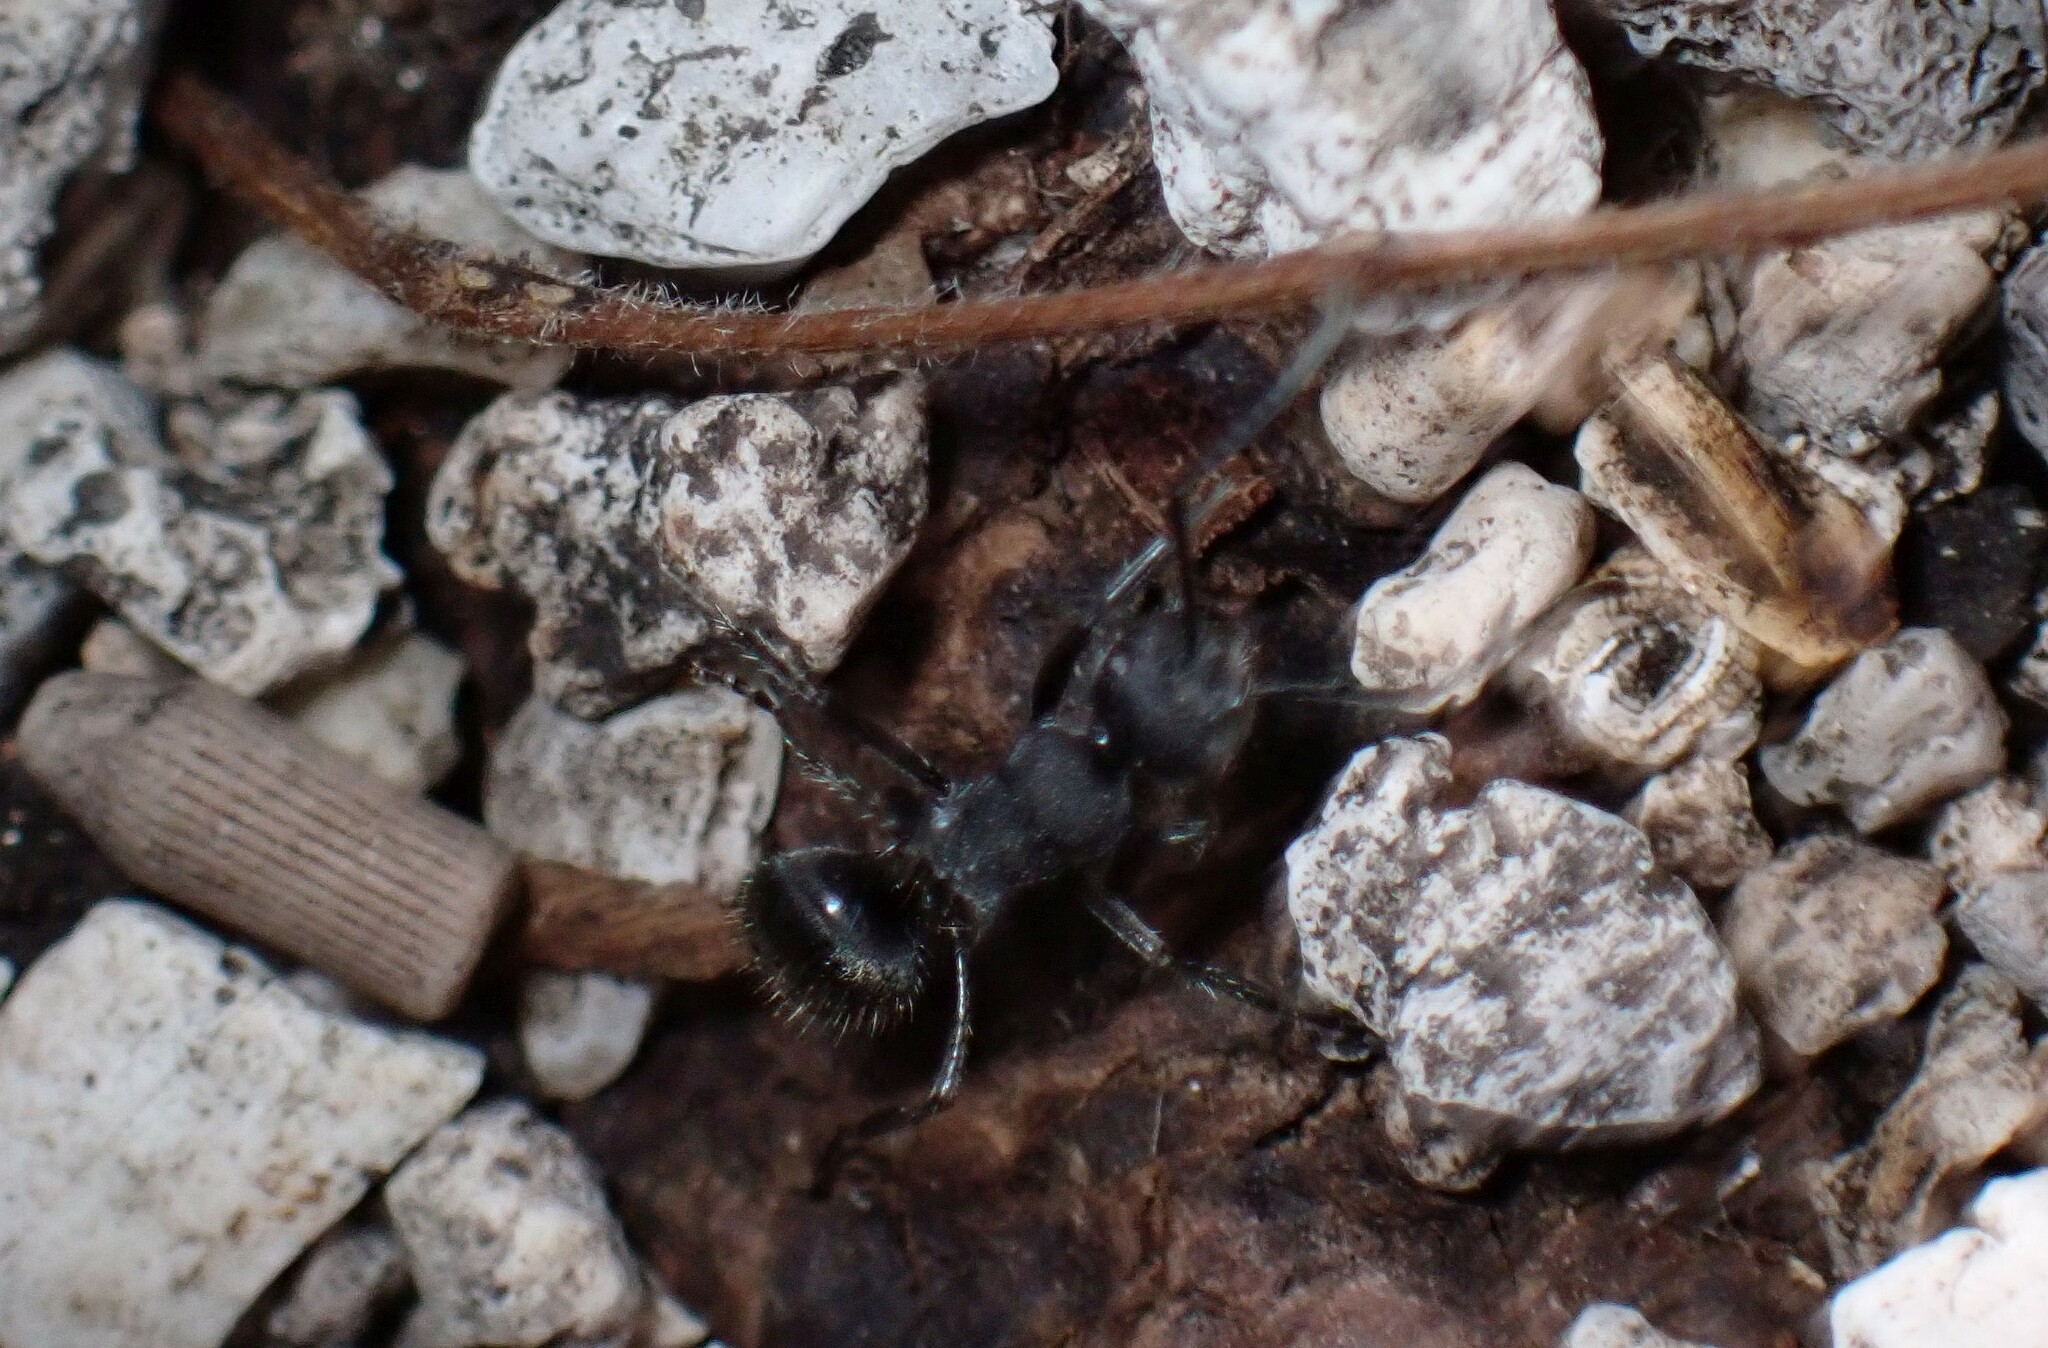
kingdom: Animalia
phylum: Arthropoda
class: Insecta
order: Hymenoptera
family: Formicidae
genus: Polyrhachis
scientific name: Polyrhachis aurea
